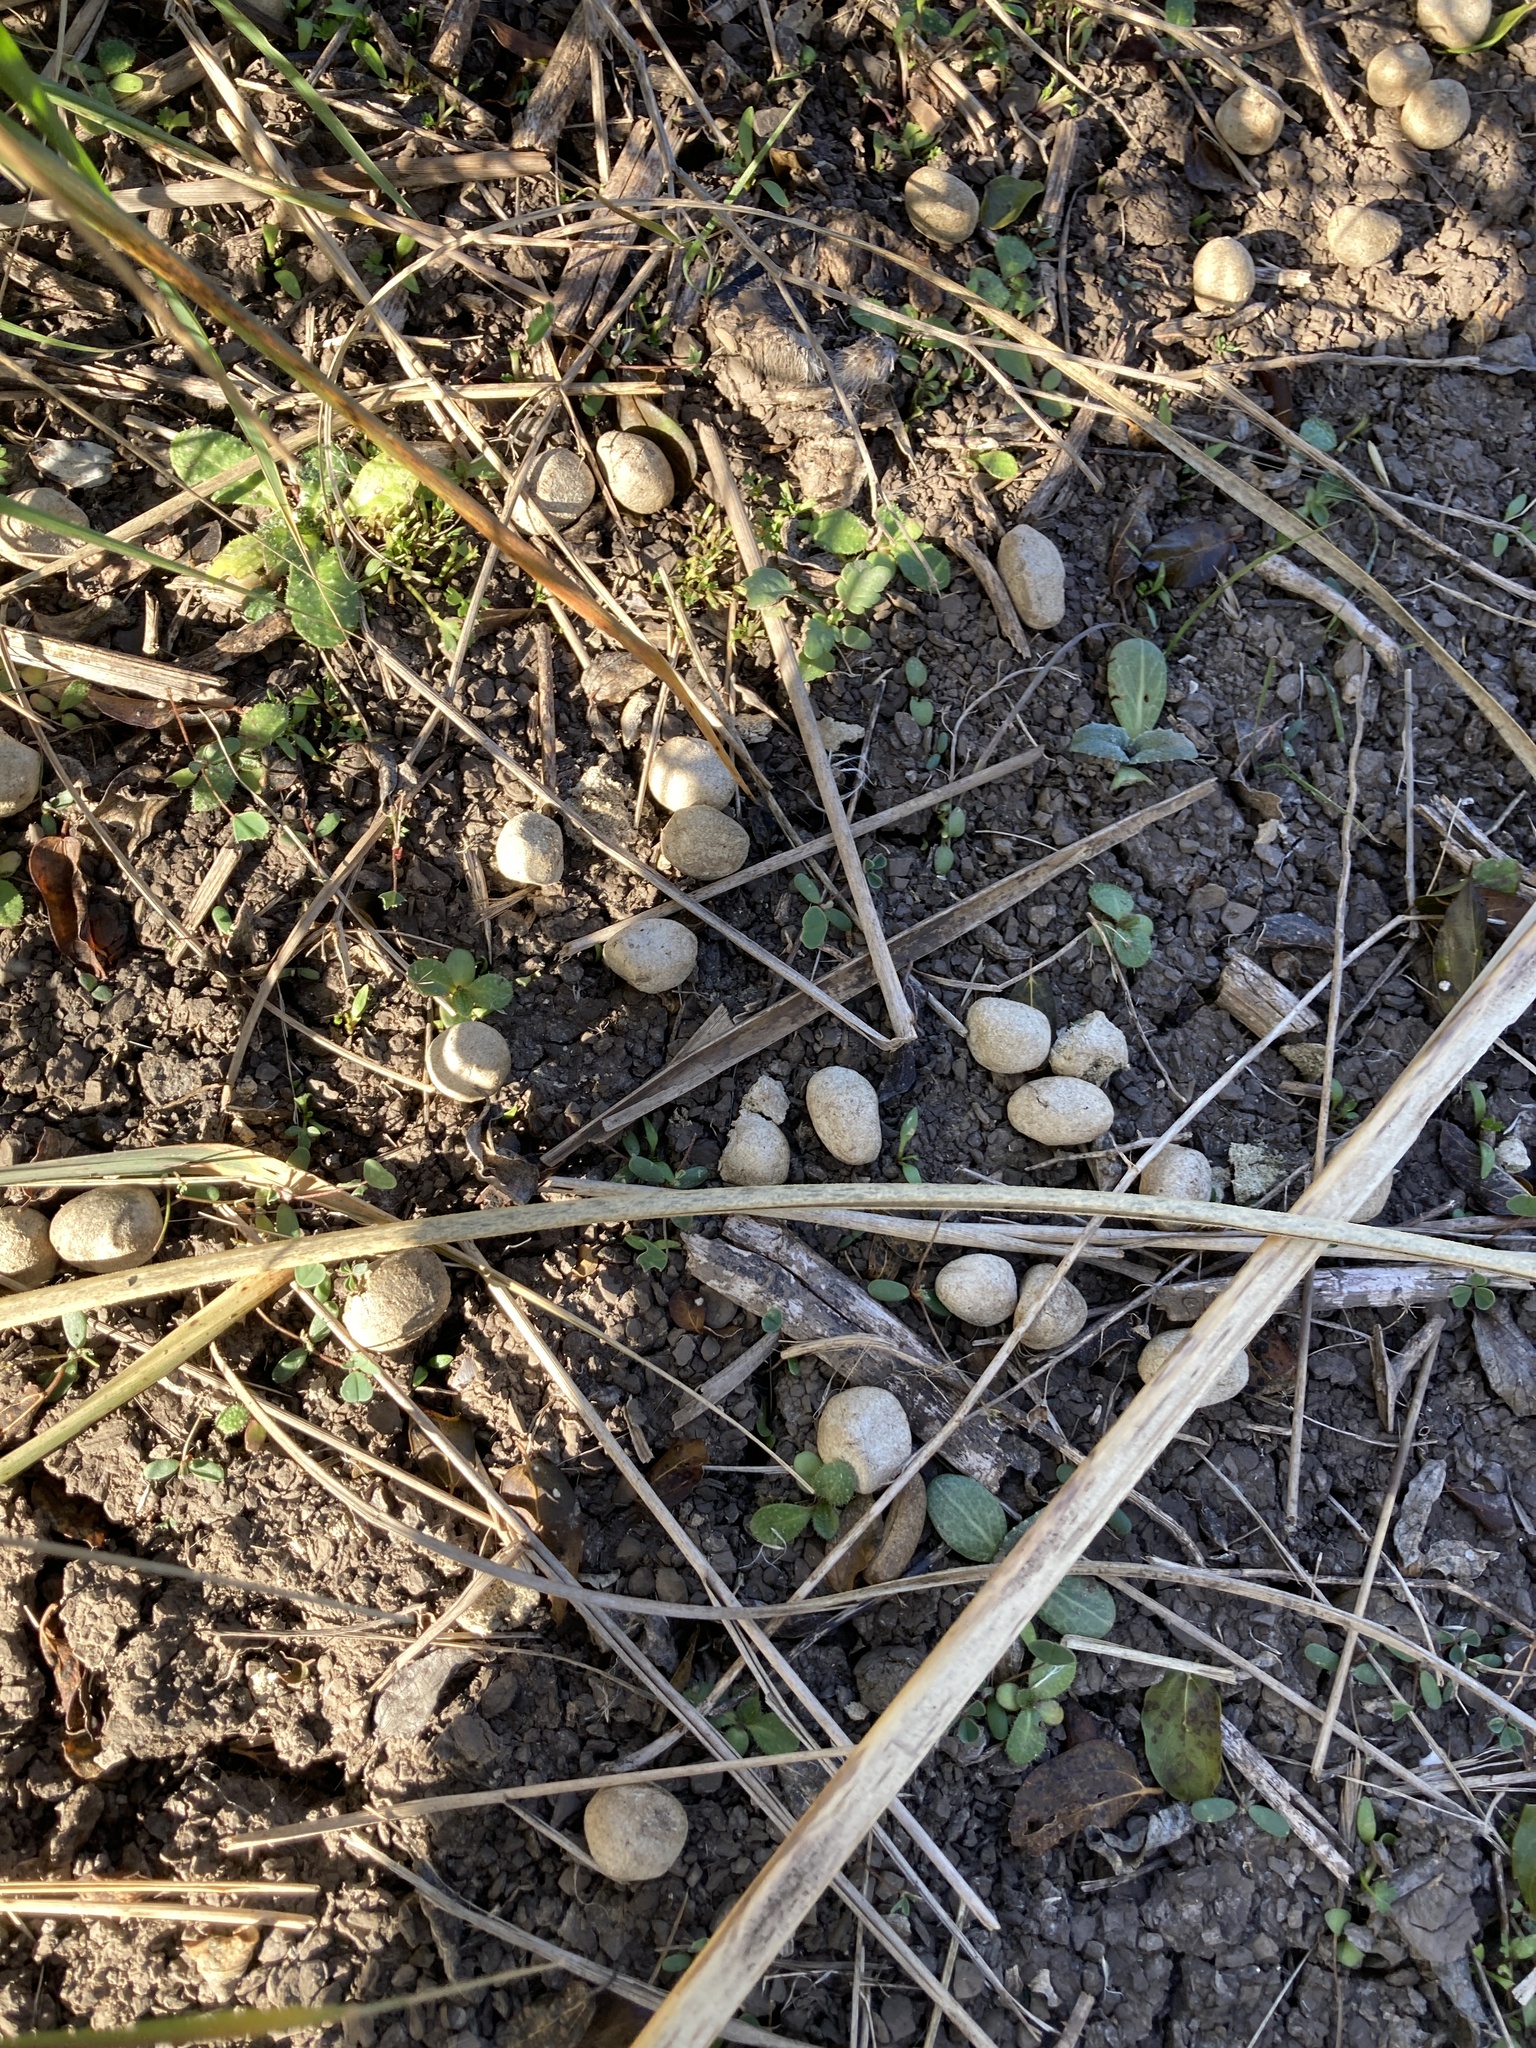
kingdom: Animalia
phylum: Chordata
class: Mammalia
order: Rodentia
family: Caviidae
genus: Hydrochoerus
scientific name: Hydrochoerus hydrochaeris
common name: Capybara
